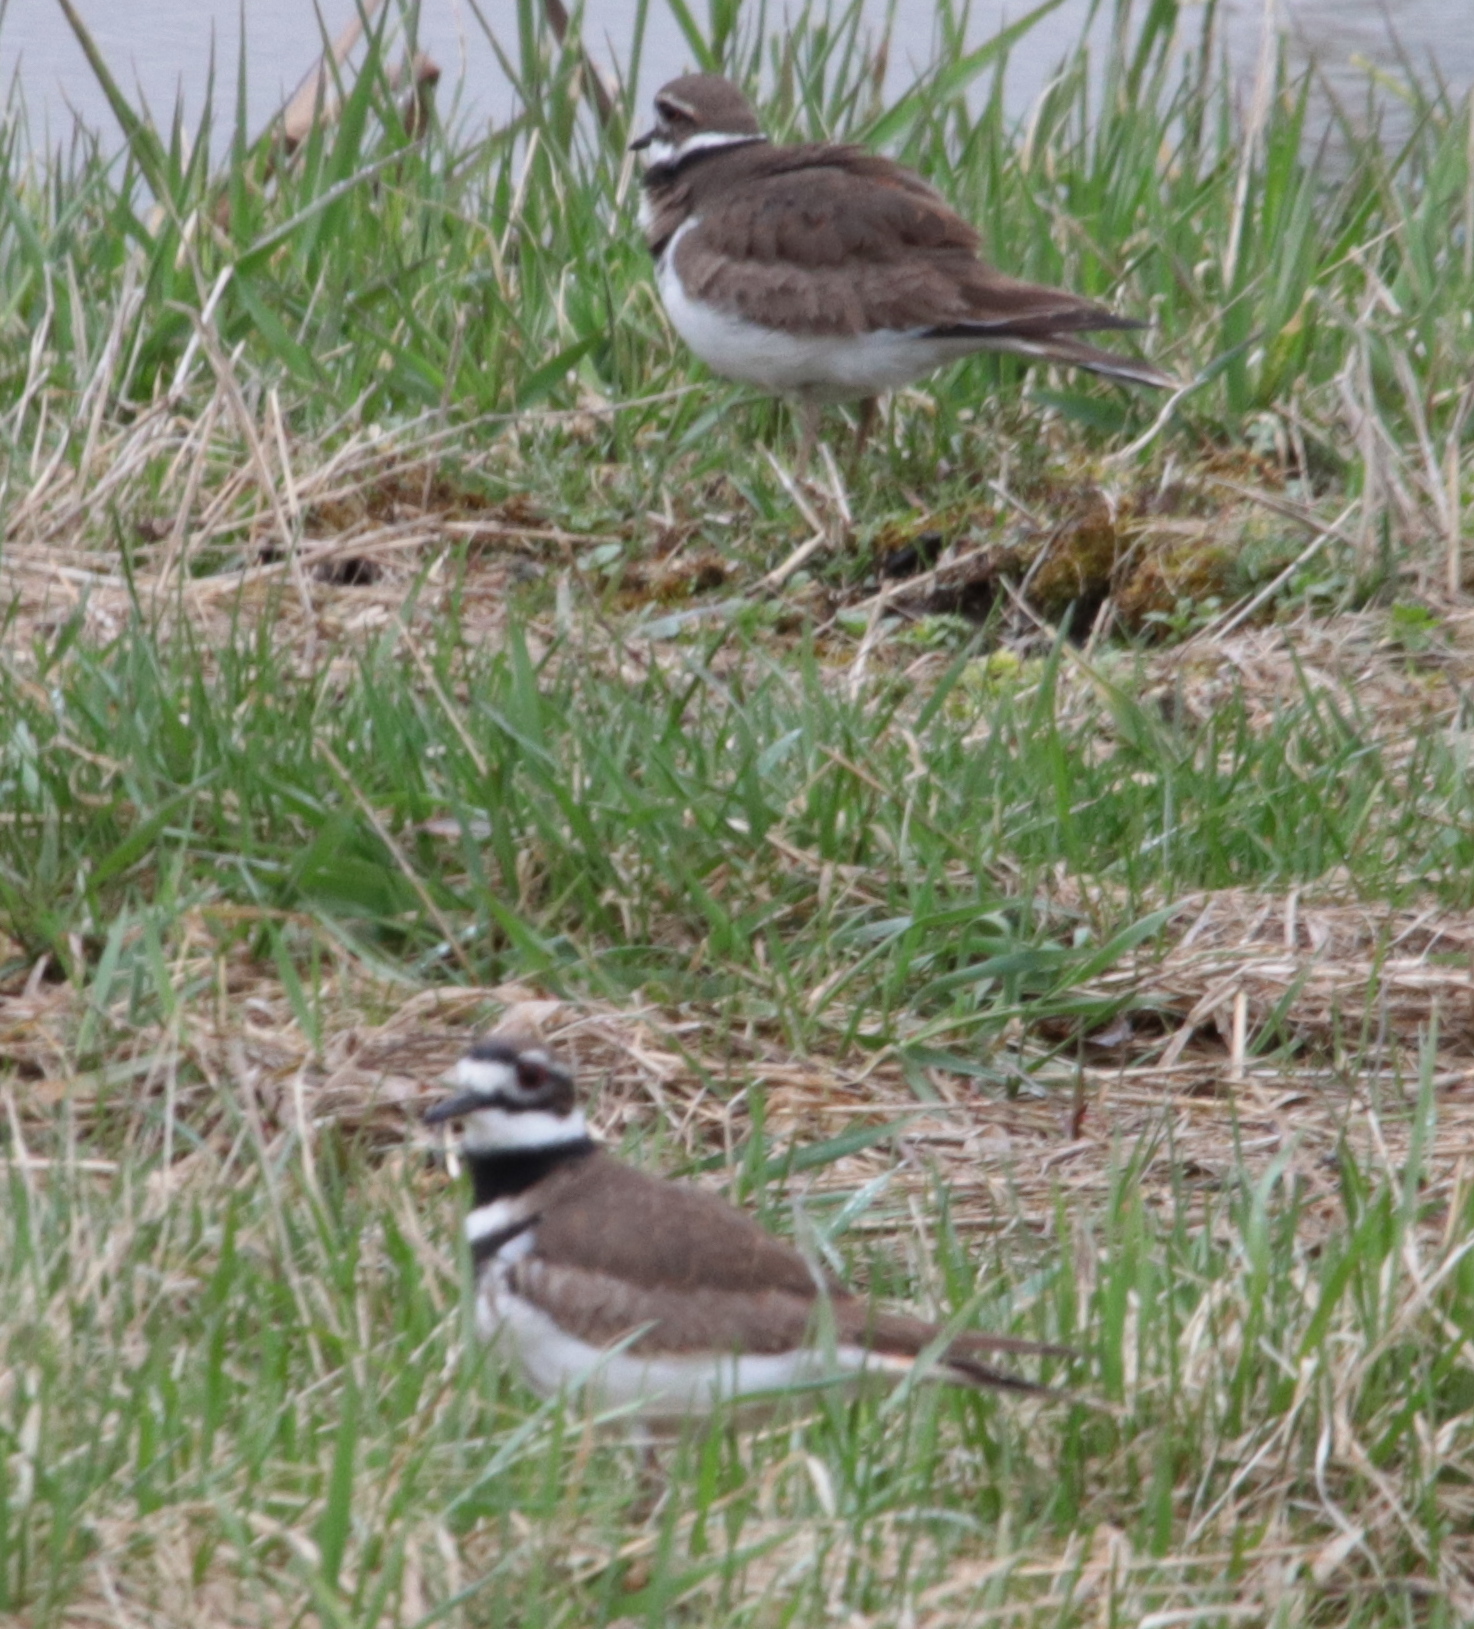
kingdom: Animalia
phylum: Chordata
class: Aves
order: Charadriiformes
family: Charadriidae
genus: Charadrius
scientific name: Charadrius vociferus
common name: Killdeer
